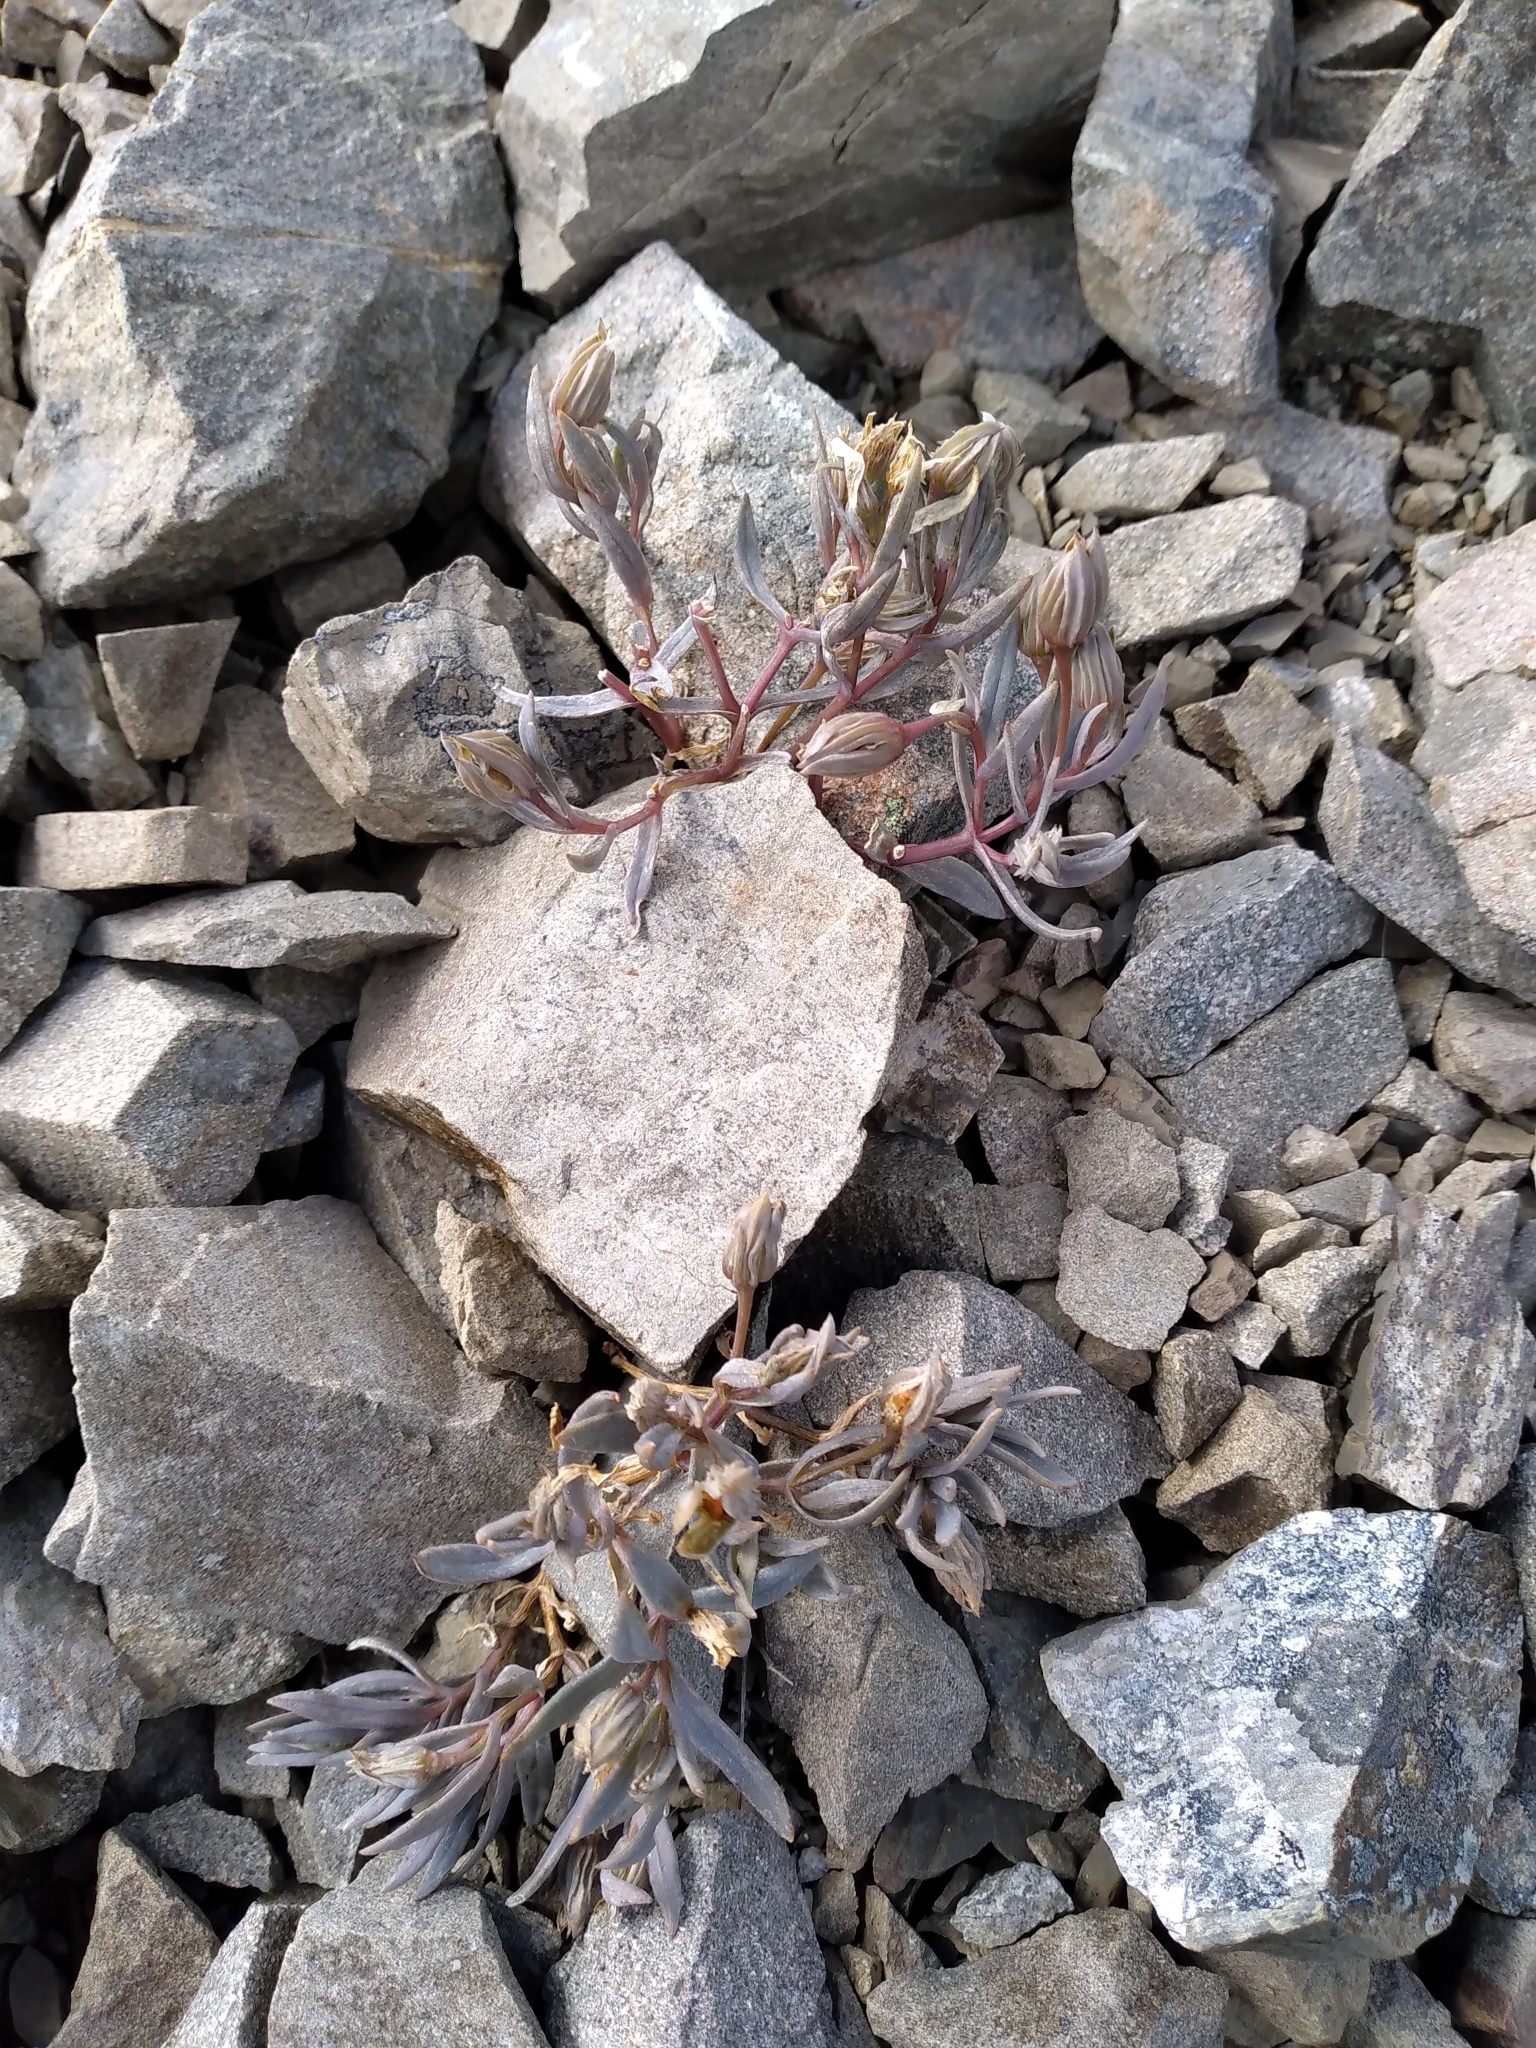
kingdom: Plantae
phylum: Tracheophyta
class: Magnoliopsida
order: Caryophyllales
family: Caryophyllaceae
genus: Stellaria
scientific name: Stellaria roughii
